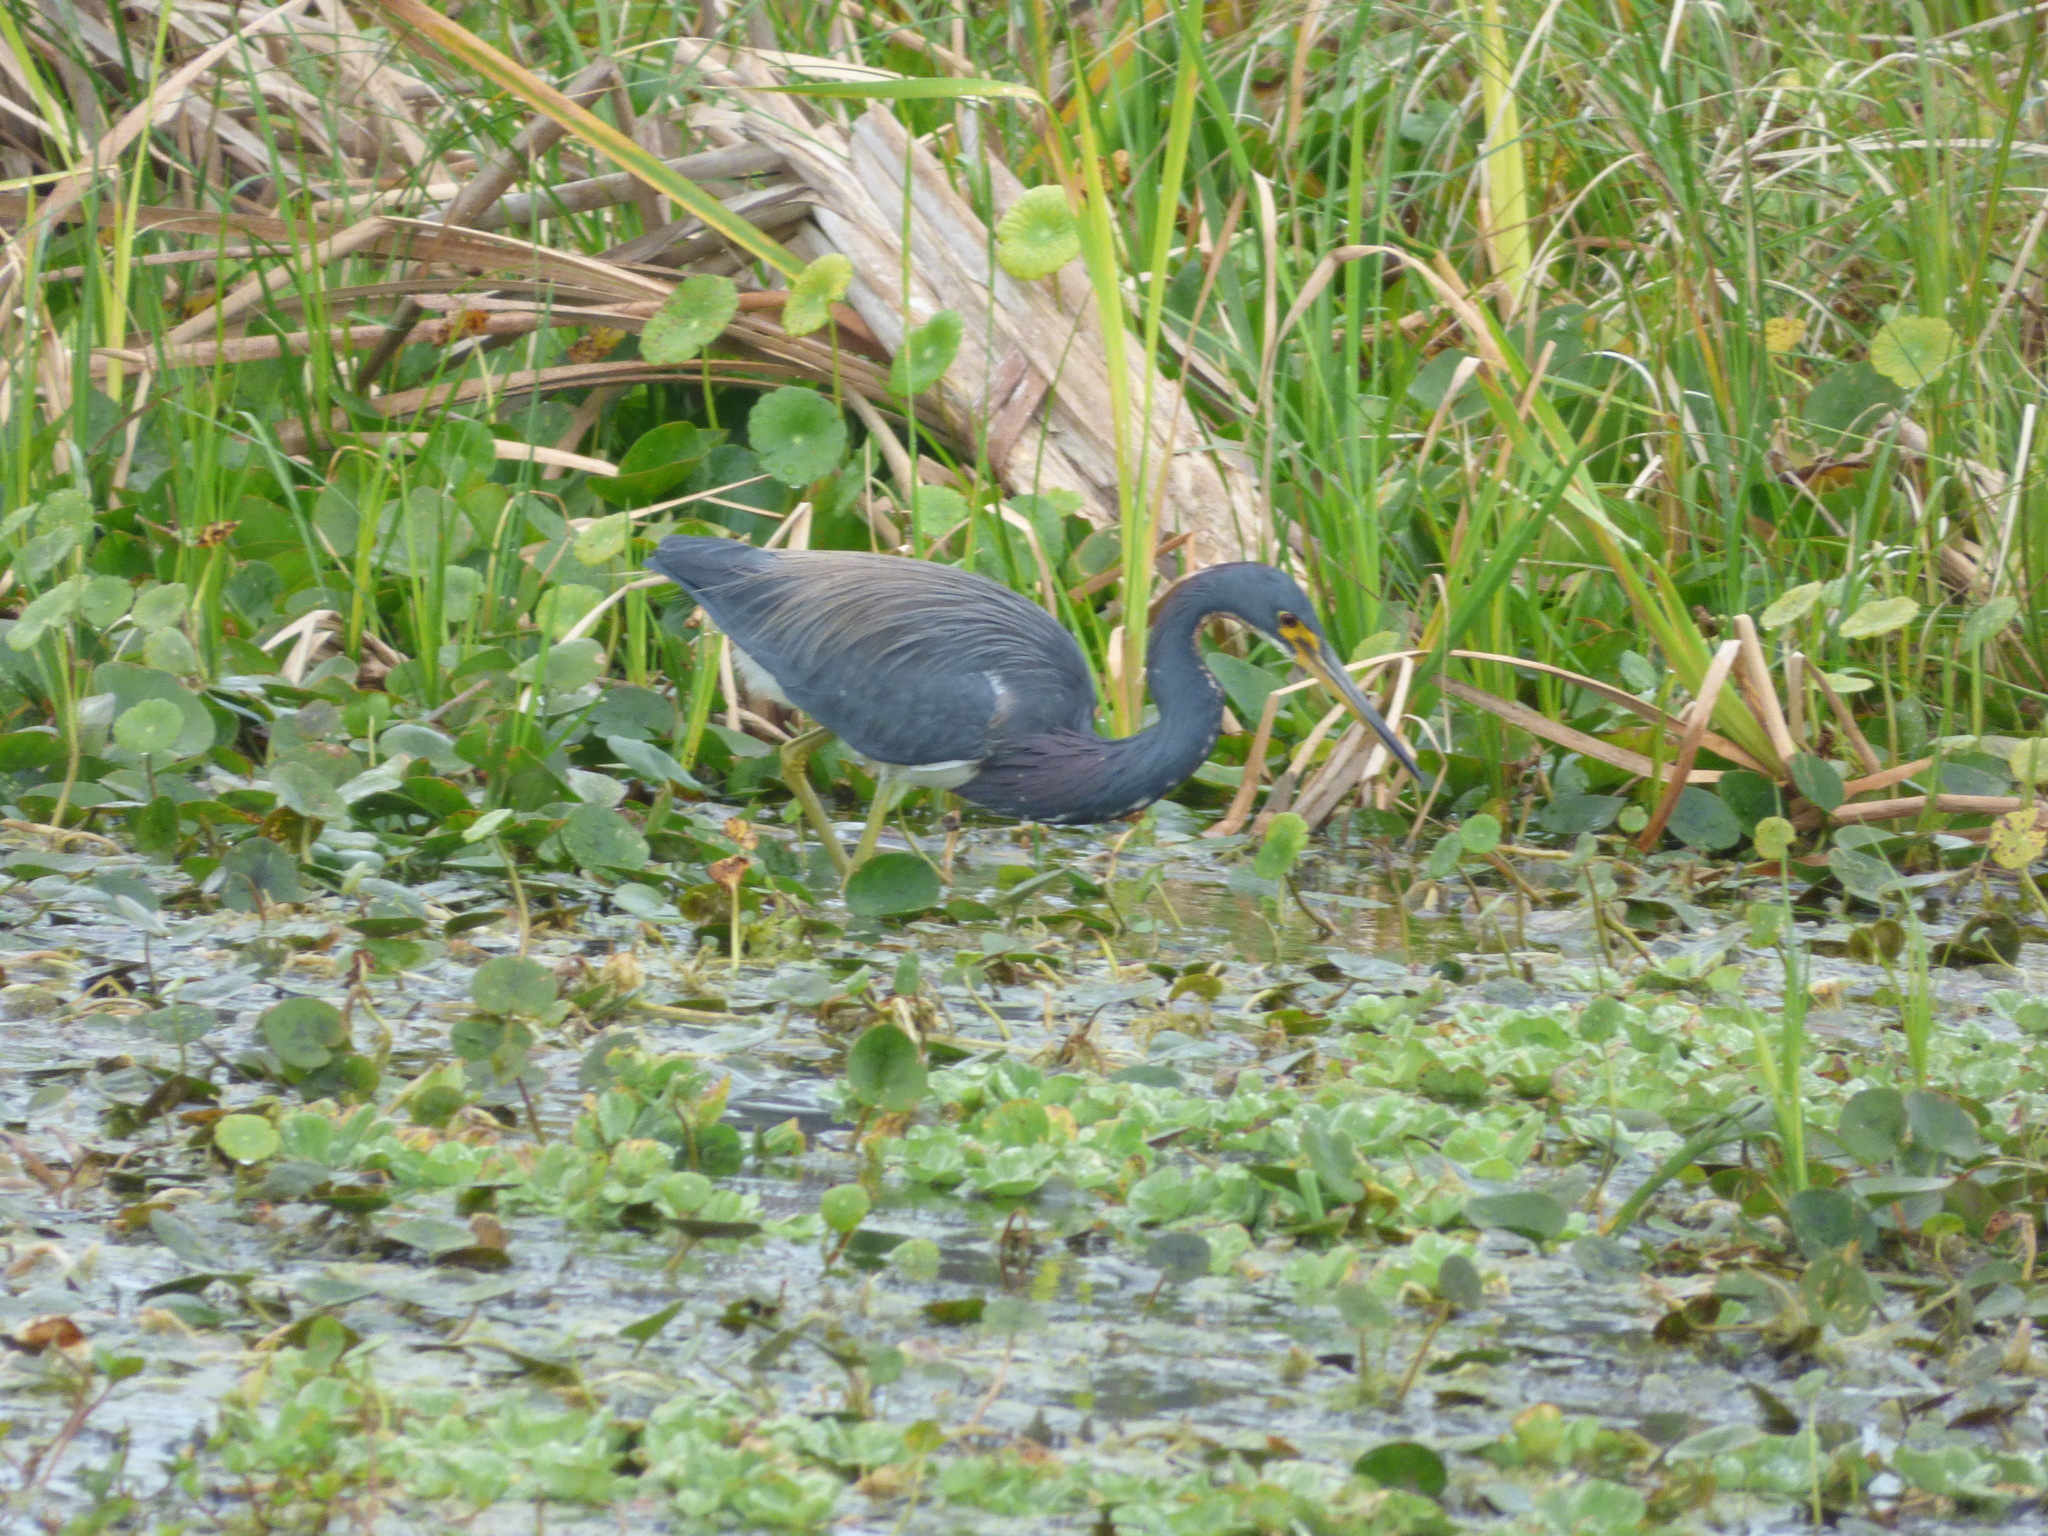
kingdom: Animalia
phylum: Chordata
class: Aves
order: Pelecaniformes
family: Ardeidae
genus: Egretta
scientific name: Egretta tricolor
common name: Tricolored heron
